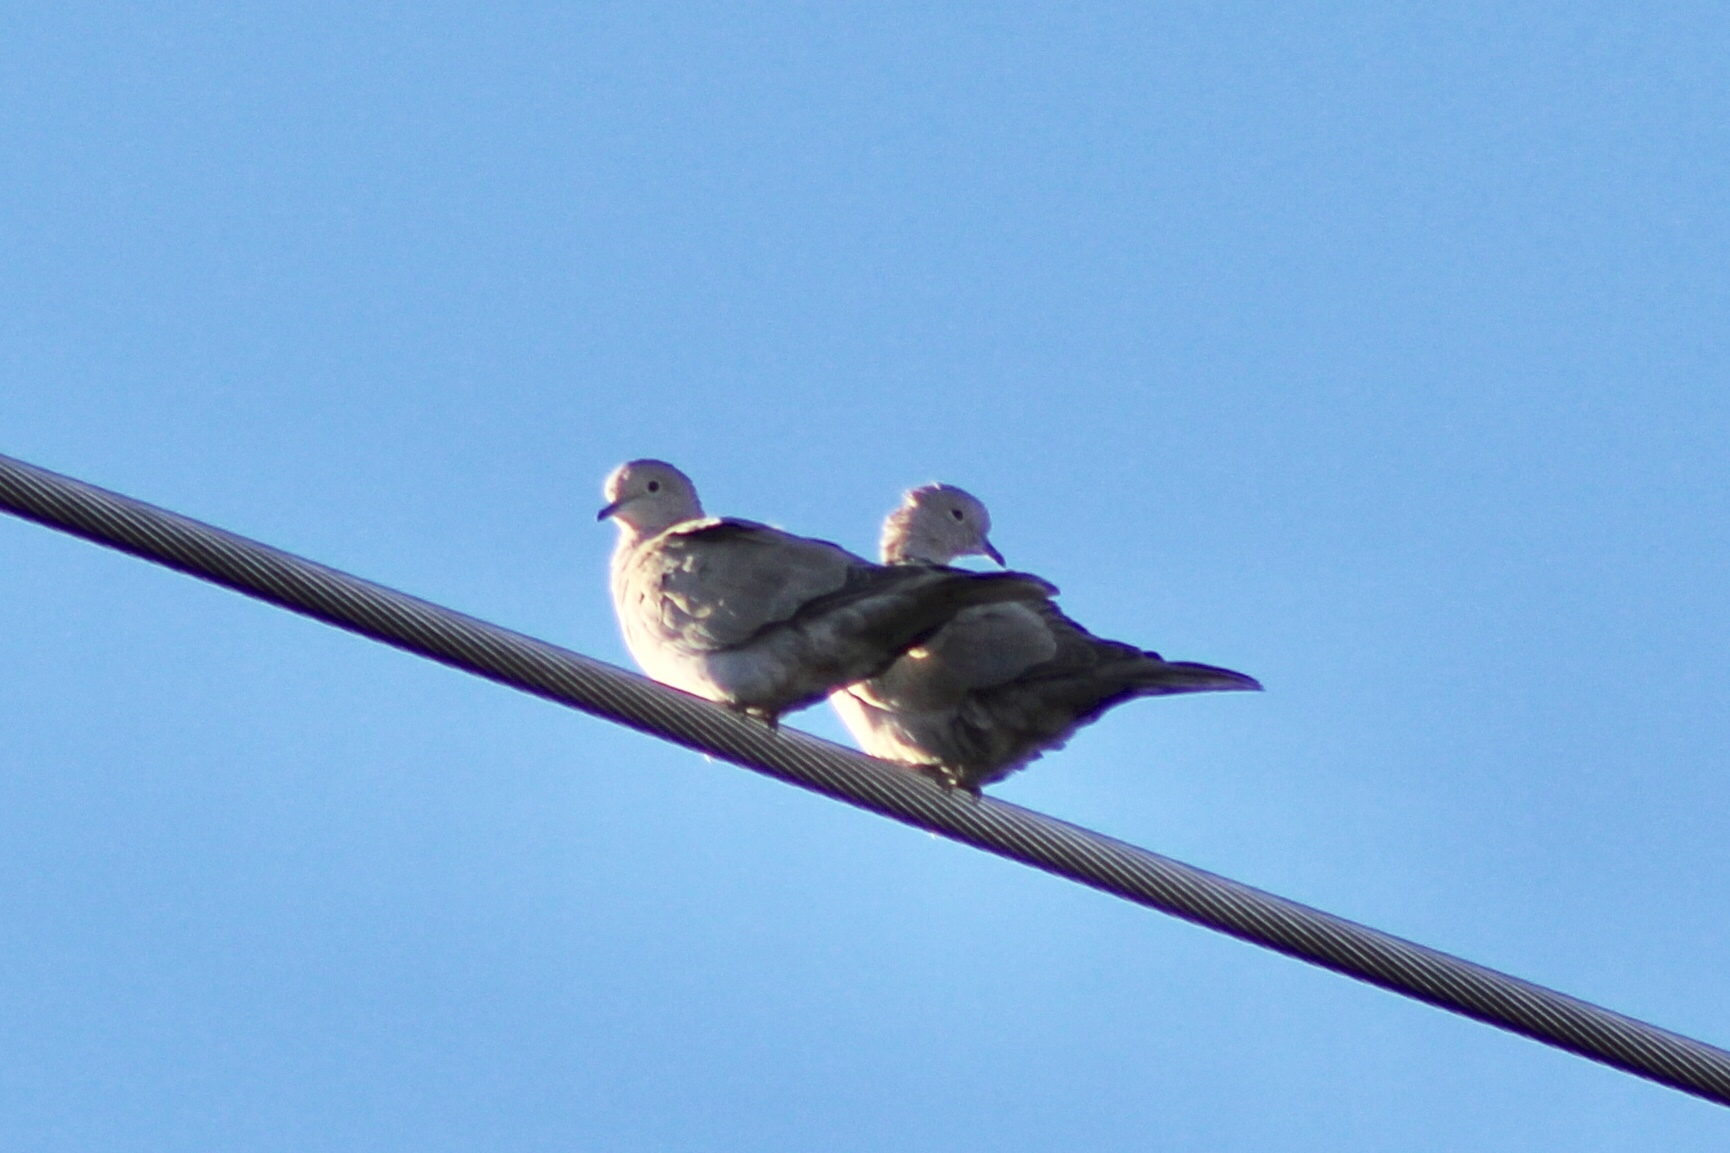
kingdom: Animalia
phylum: Chordata
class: Aves
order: Columbiformes
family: Columbidae
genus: Streptopelia
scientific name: Streptopelia decaocto
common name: Eurasian collared dove
